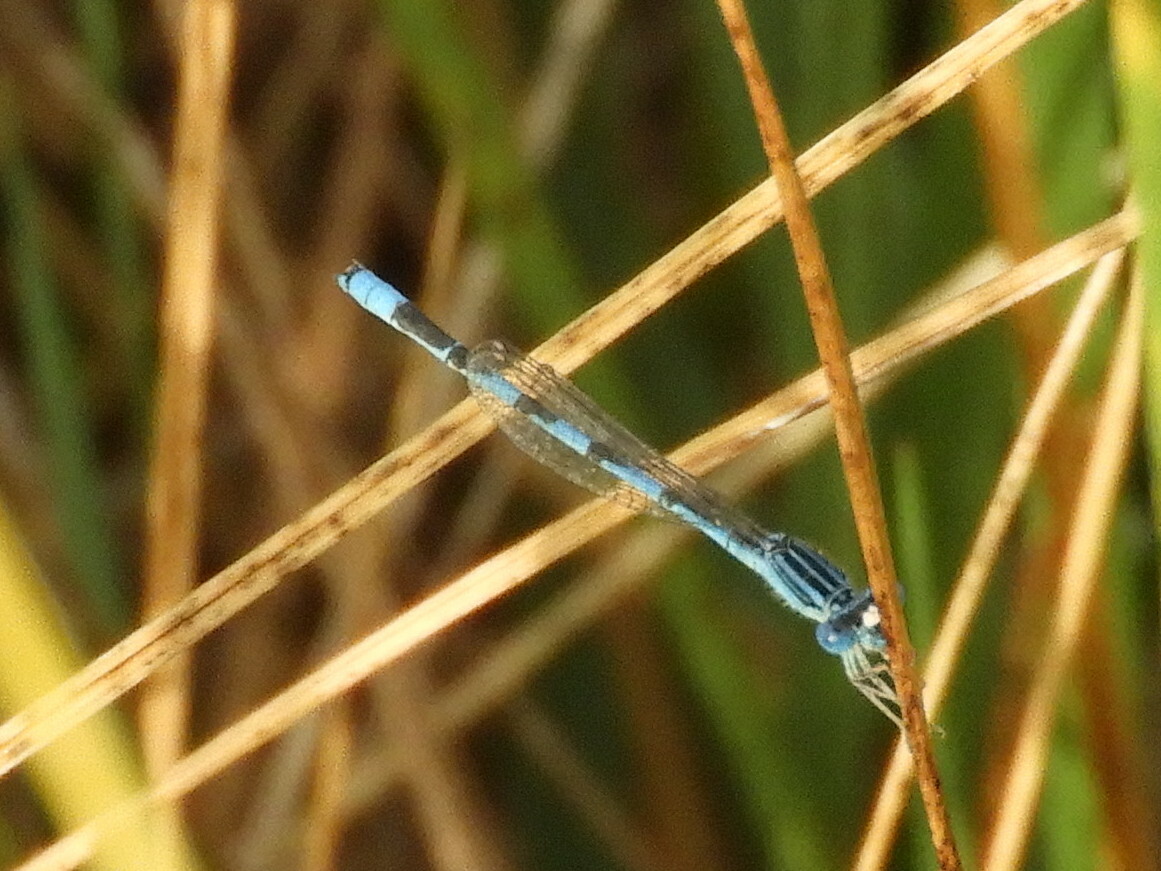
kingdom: Animalia
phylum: Arthropoda
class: Insecta
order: Odonata
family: Coenagrionidae
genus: Enallagma
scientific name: Enallagma basidens
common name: Double-striped bluet
